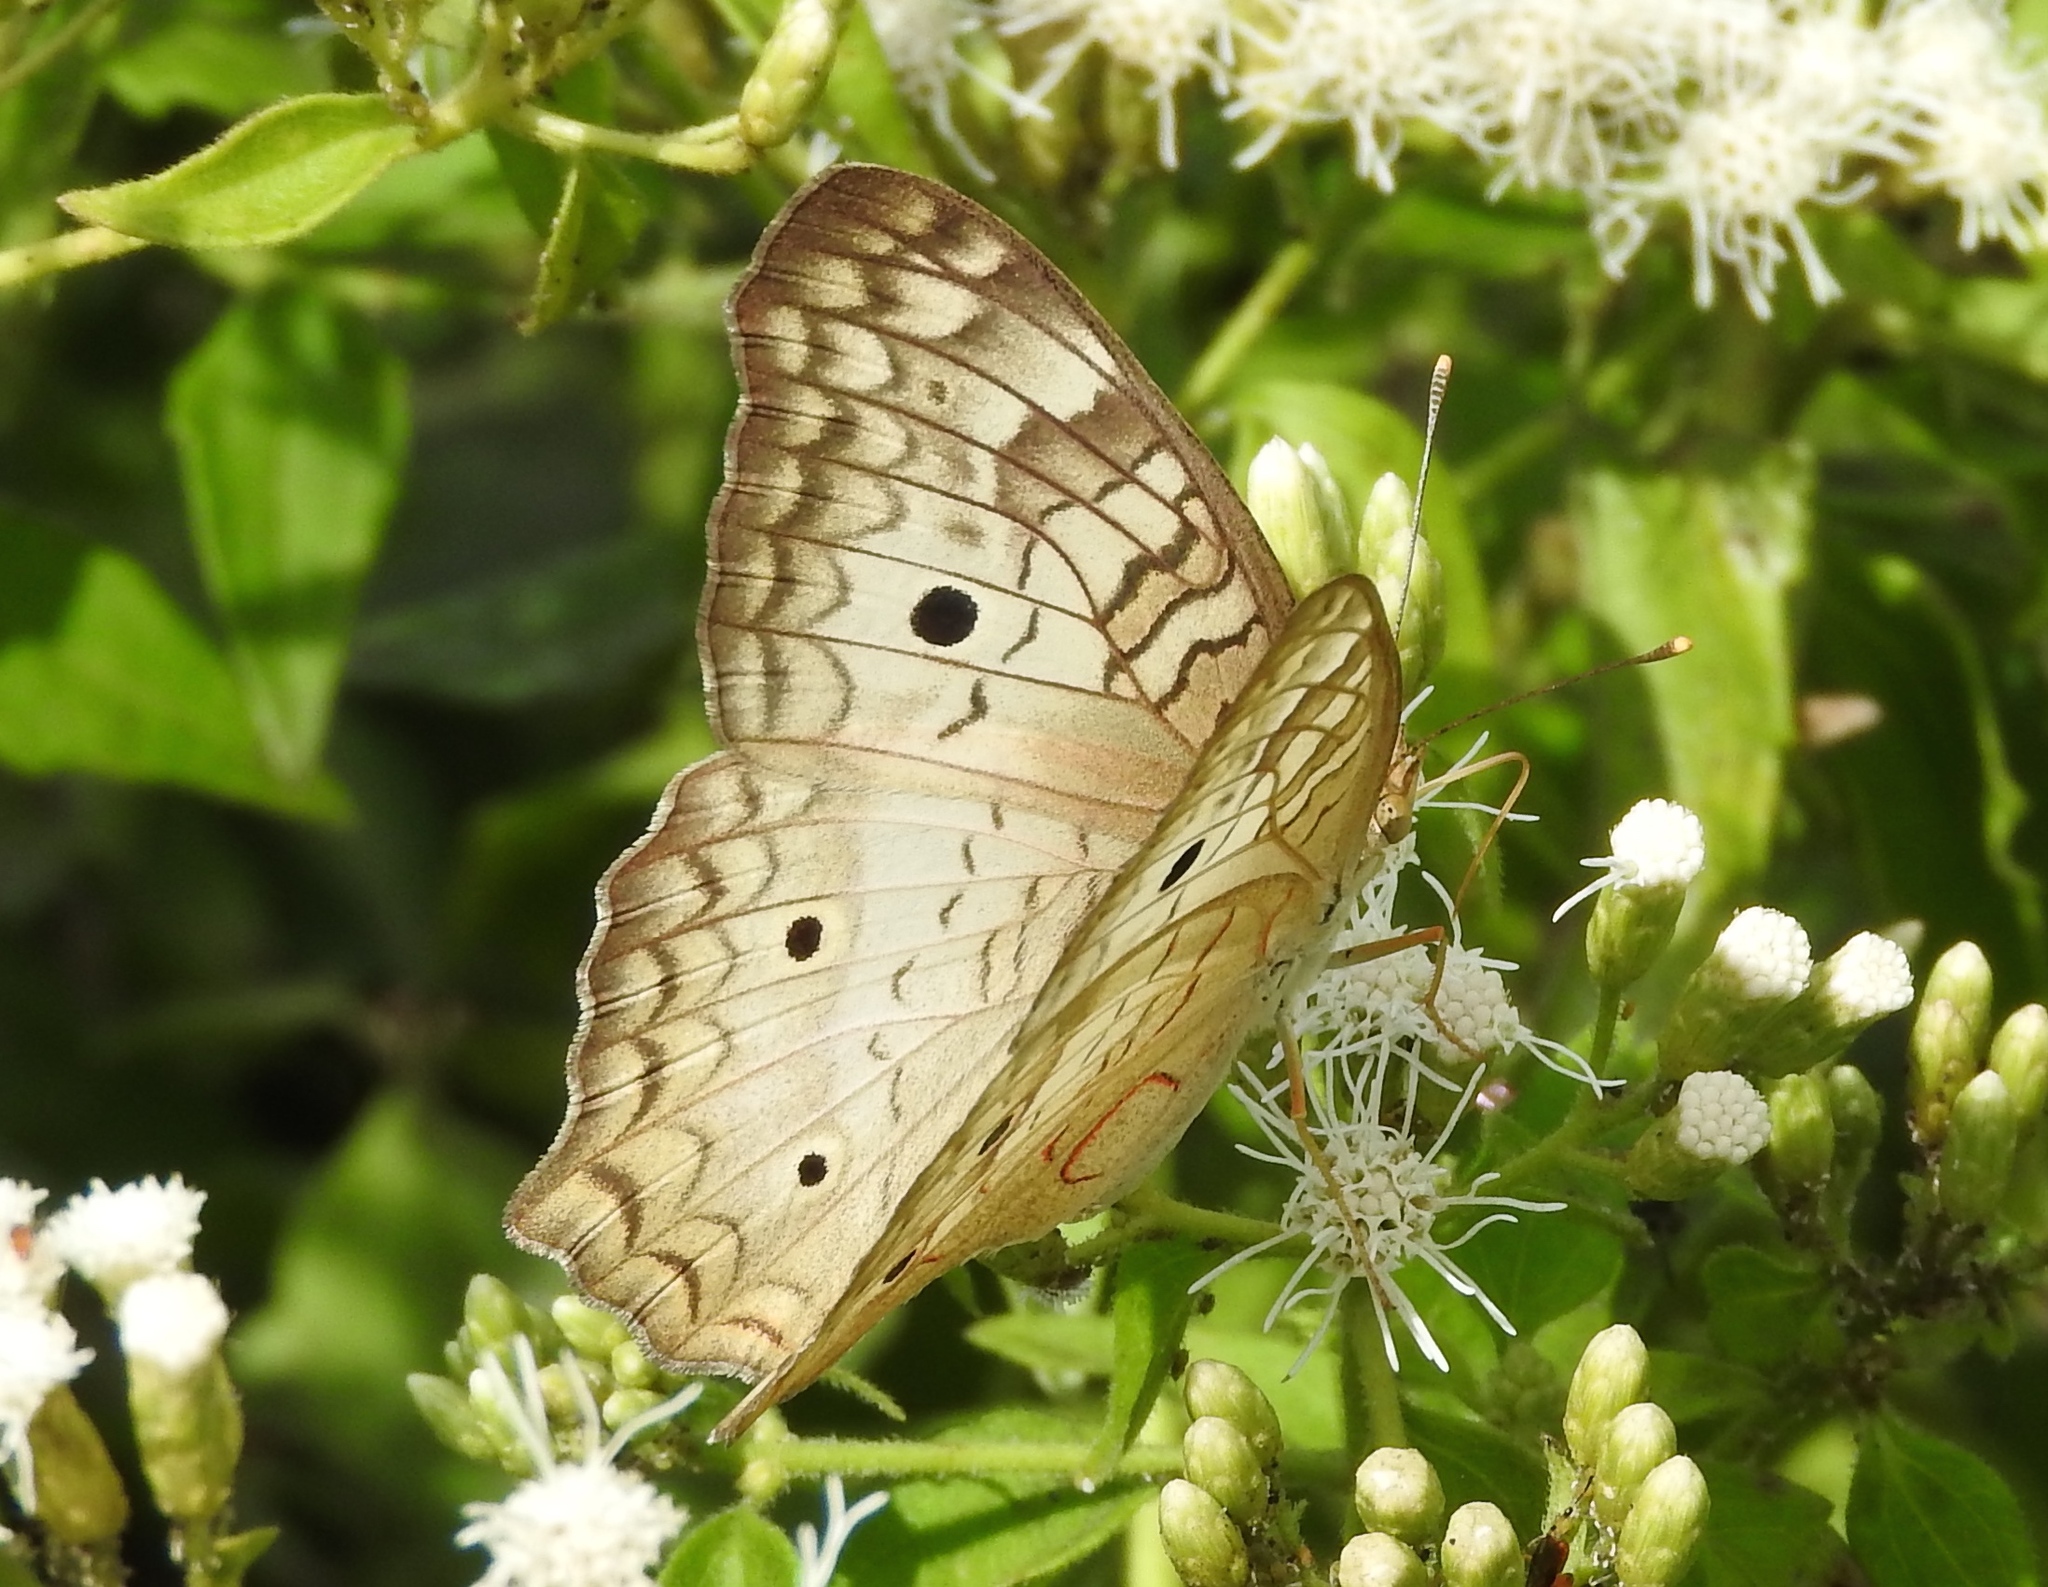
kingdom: Animalia
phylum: Arthropoda
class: Insecta
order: Lepidoptera
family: Nymphalidae
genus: Anartia
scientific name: Anartia jatrophae
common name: White peacock
